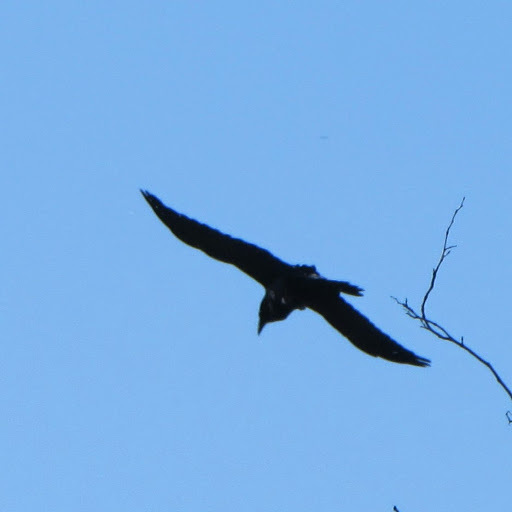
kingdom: Animalia
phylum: Chordata
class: Aves
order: Passeriformes
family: Corvidae
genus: Corvus
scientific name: Corvus corax
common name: Common raven
